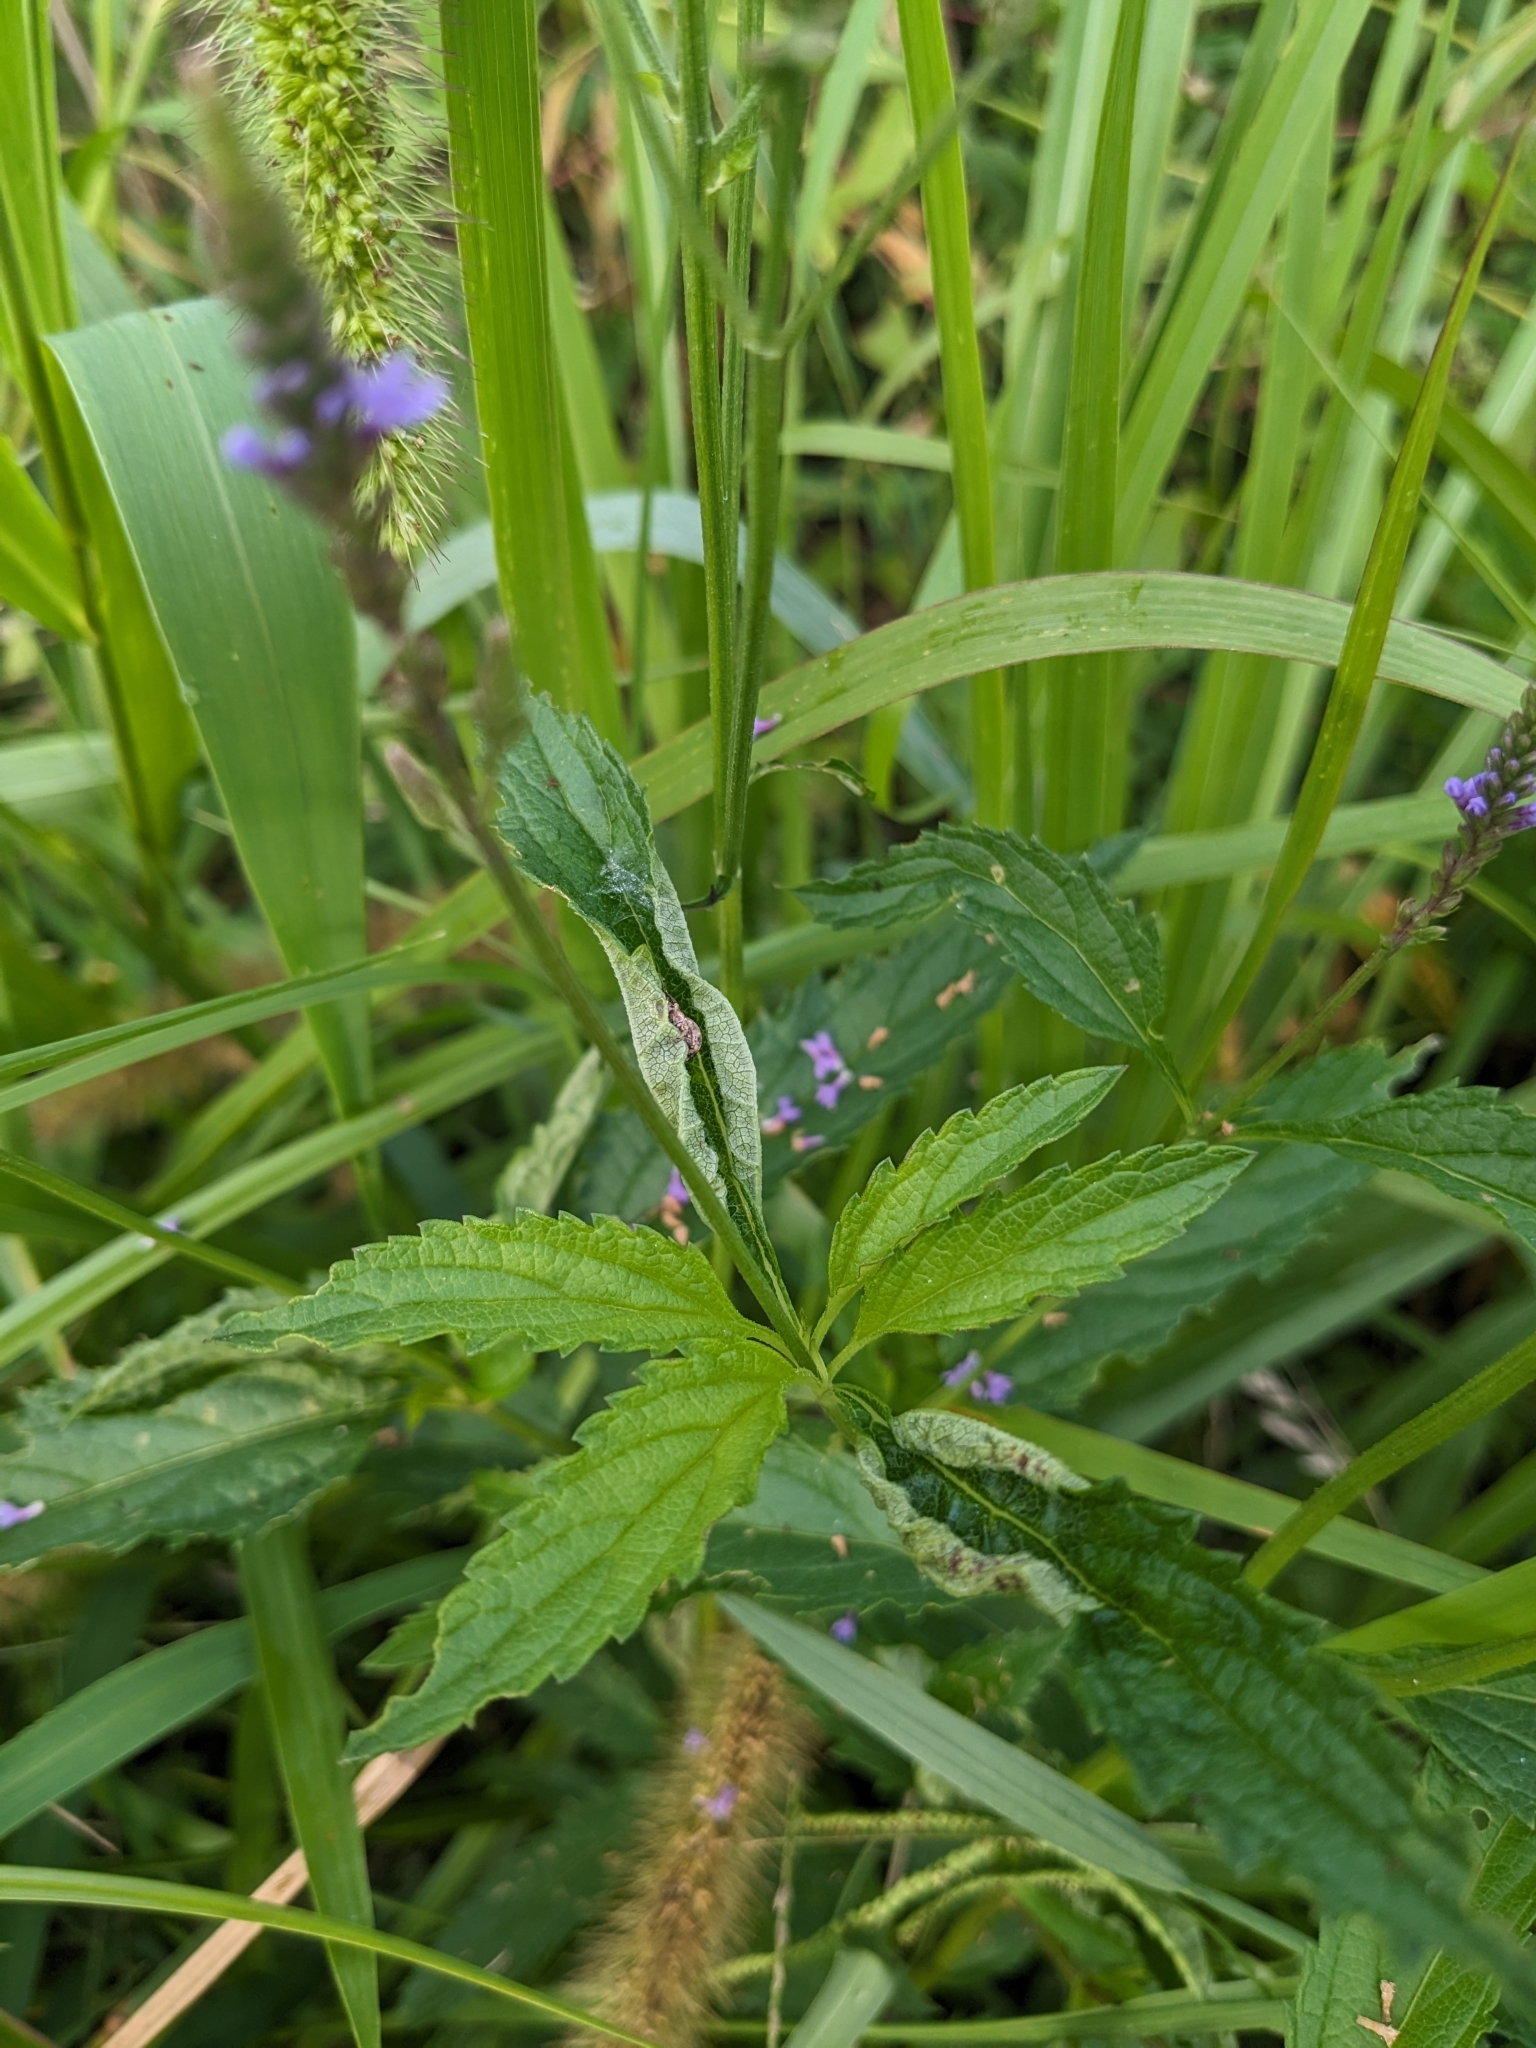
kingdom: Plantae
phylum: Tracheophyta
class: Magnoliopsida
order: Lamiales
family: Verbenaceae
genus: Verbena
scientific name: Verbena hastata
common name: American blue vervain
